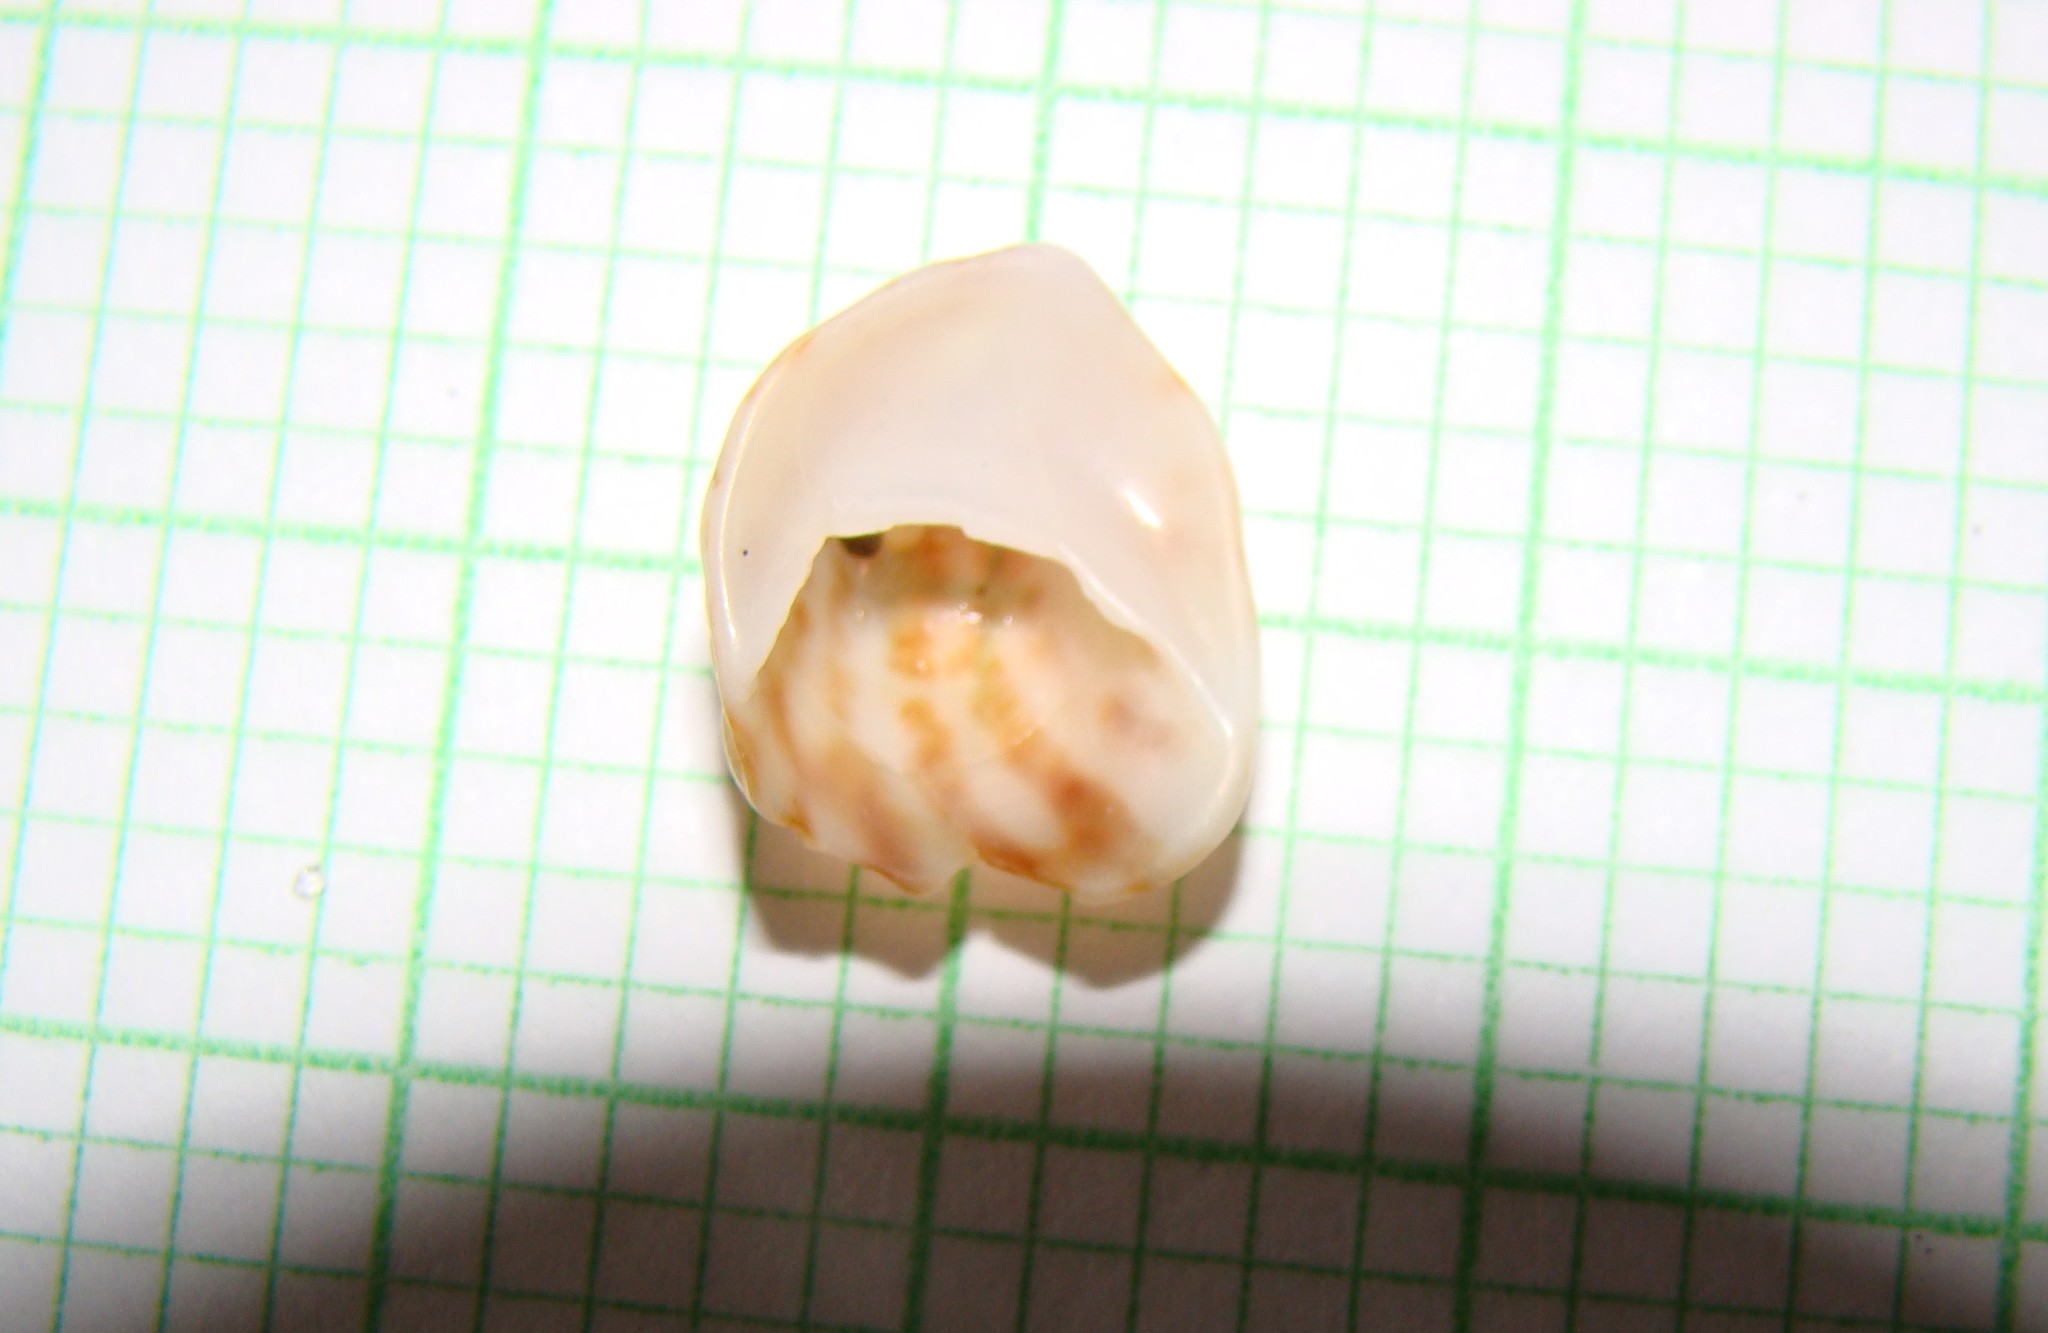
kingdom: Animalia
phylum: Mollusca
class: Gastropoda
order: Littorinimorpha
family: Calyptraeidae
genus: Maoricrypta
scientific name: Maoricrypta costata
